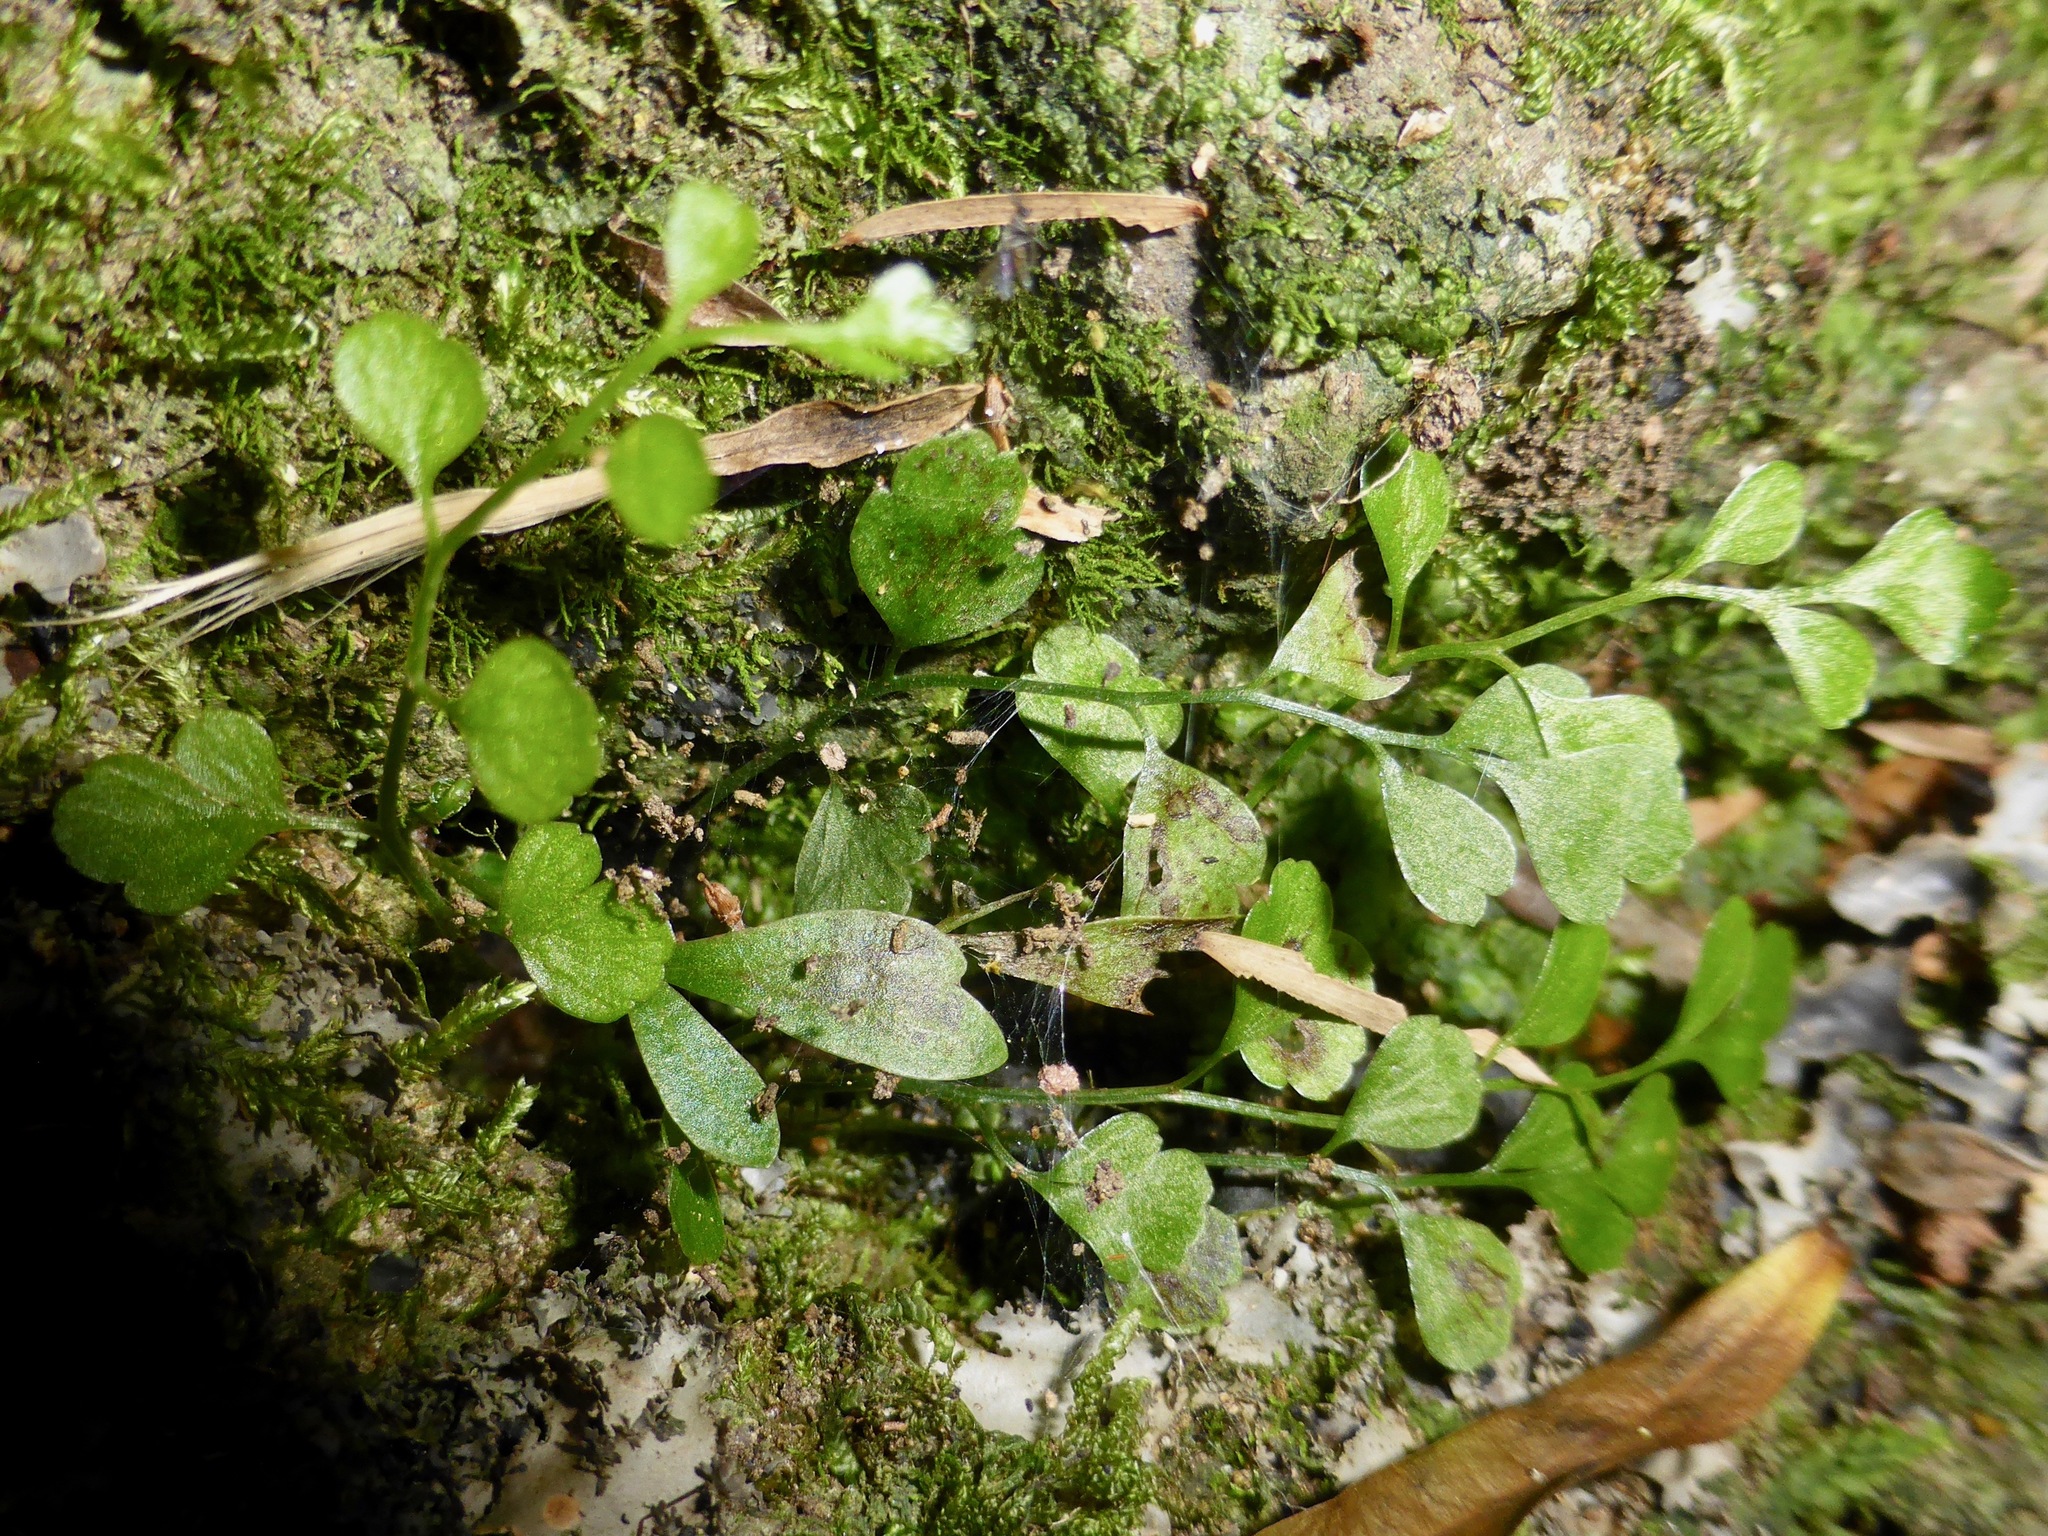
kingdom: Plantae
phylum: Tracheophyta
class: Magnoliopsida
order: Caryophyllales
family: Polygonaceae
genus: Muehlenbeckia
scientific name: Muehlenbeckia complexa
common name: Wireplant
